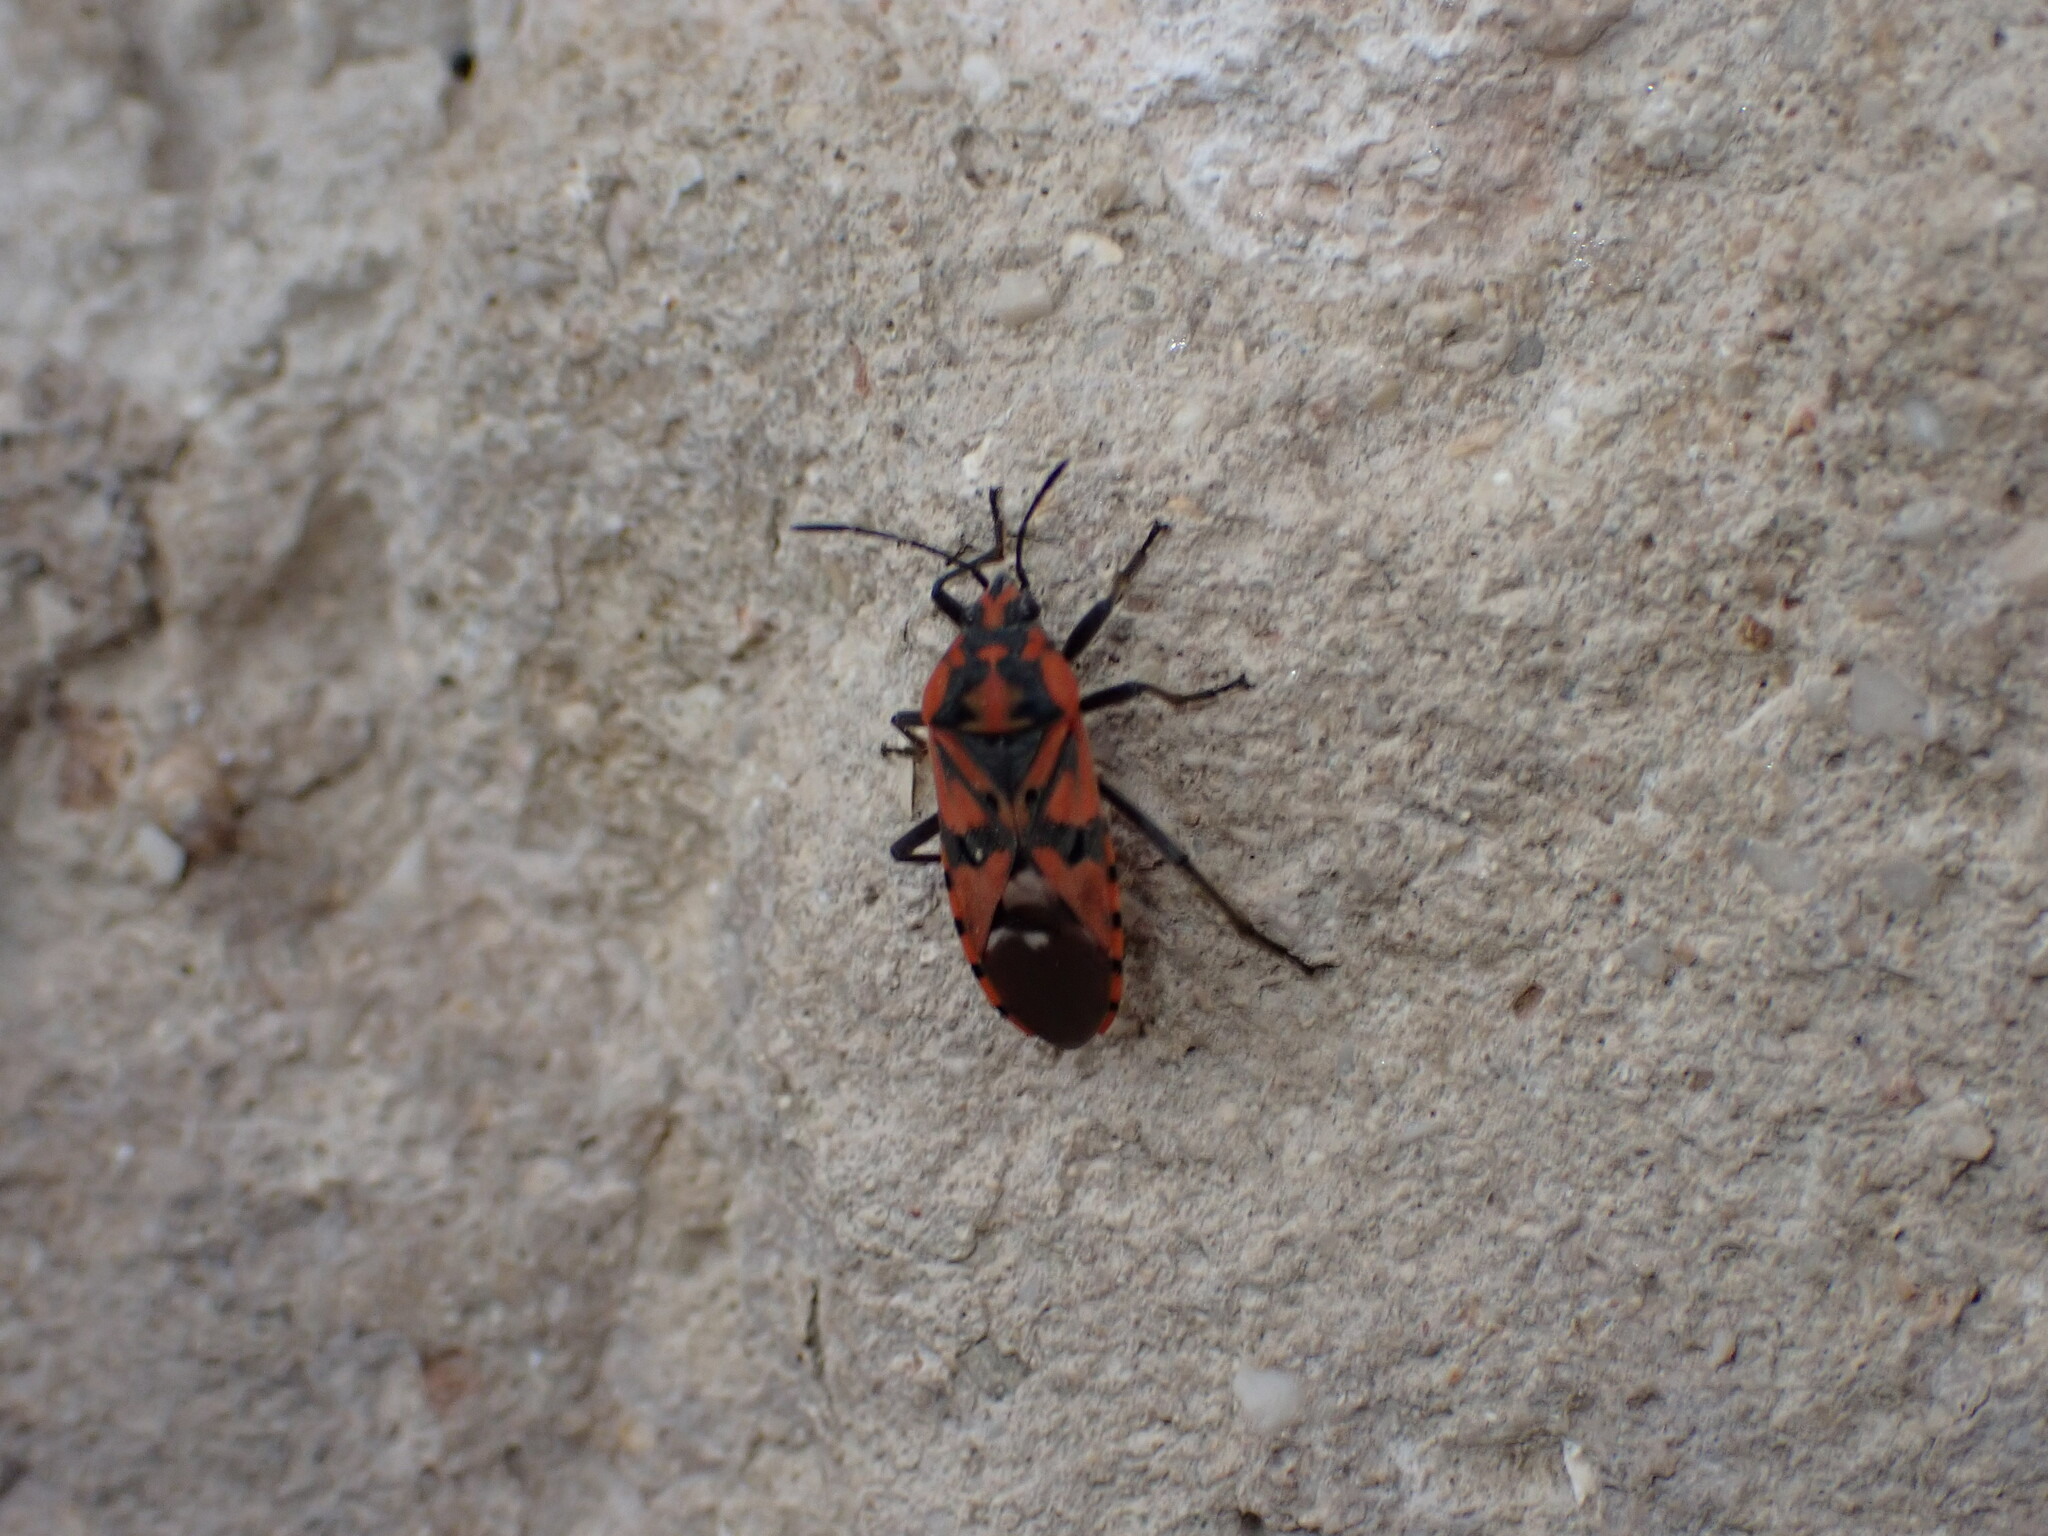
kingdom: Animalia
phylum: Arthropoda
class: Insecta
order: Hemiptera
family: Lygaeidae
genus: Spilostethus
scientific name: Spilostethus pandurus
